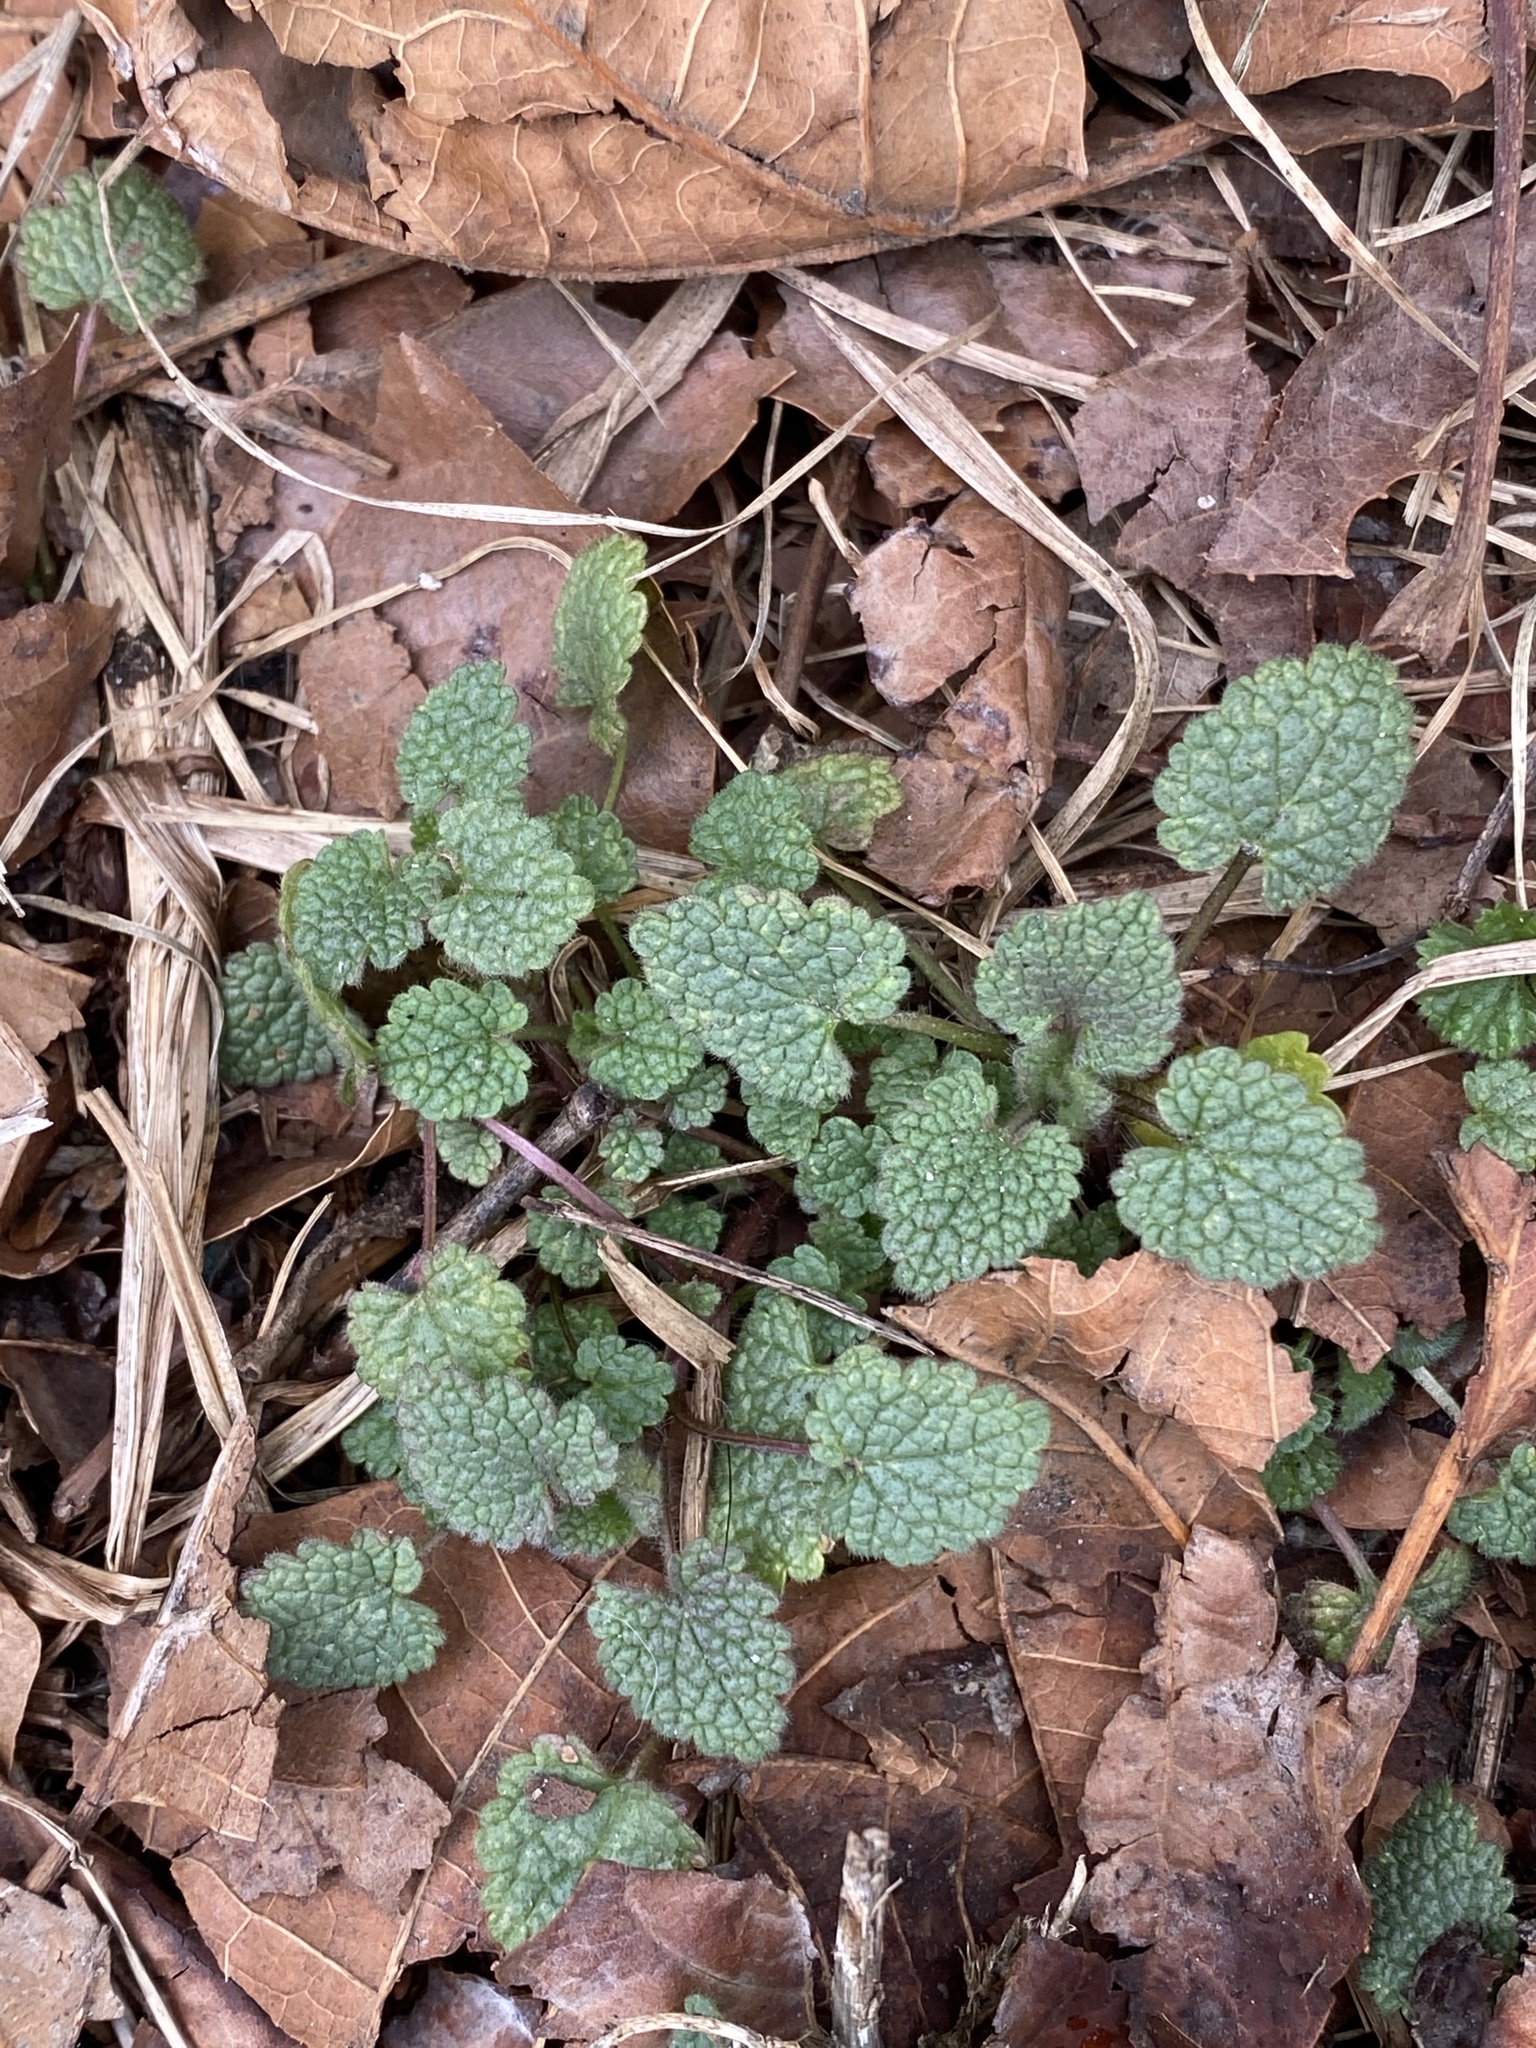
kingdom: Plantae
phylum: Tracheophyta
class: Magnoliopsida
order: Lamiales
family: Lamiaceae
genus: Lamium
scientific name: Lamium purpureum
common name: Red dead-nettle
